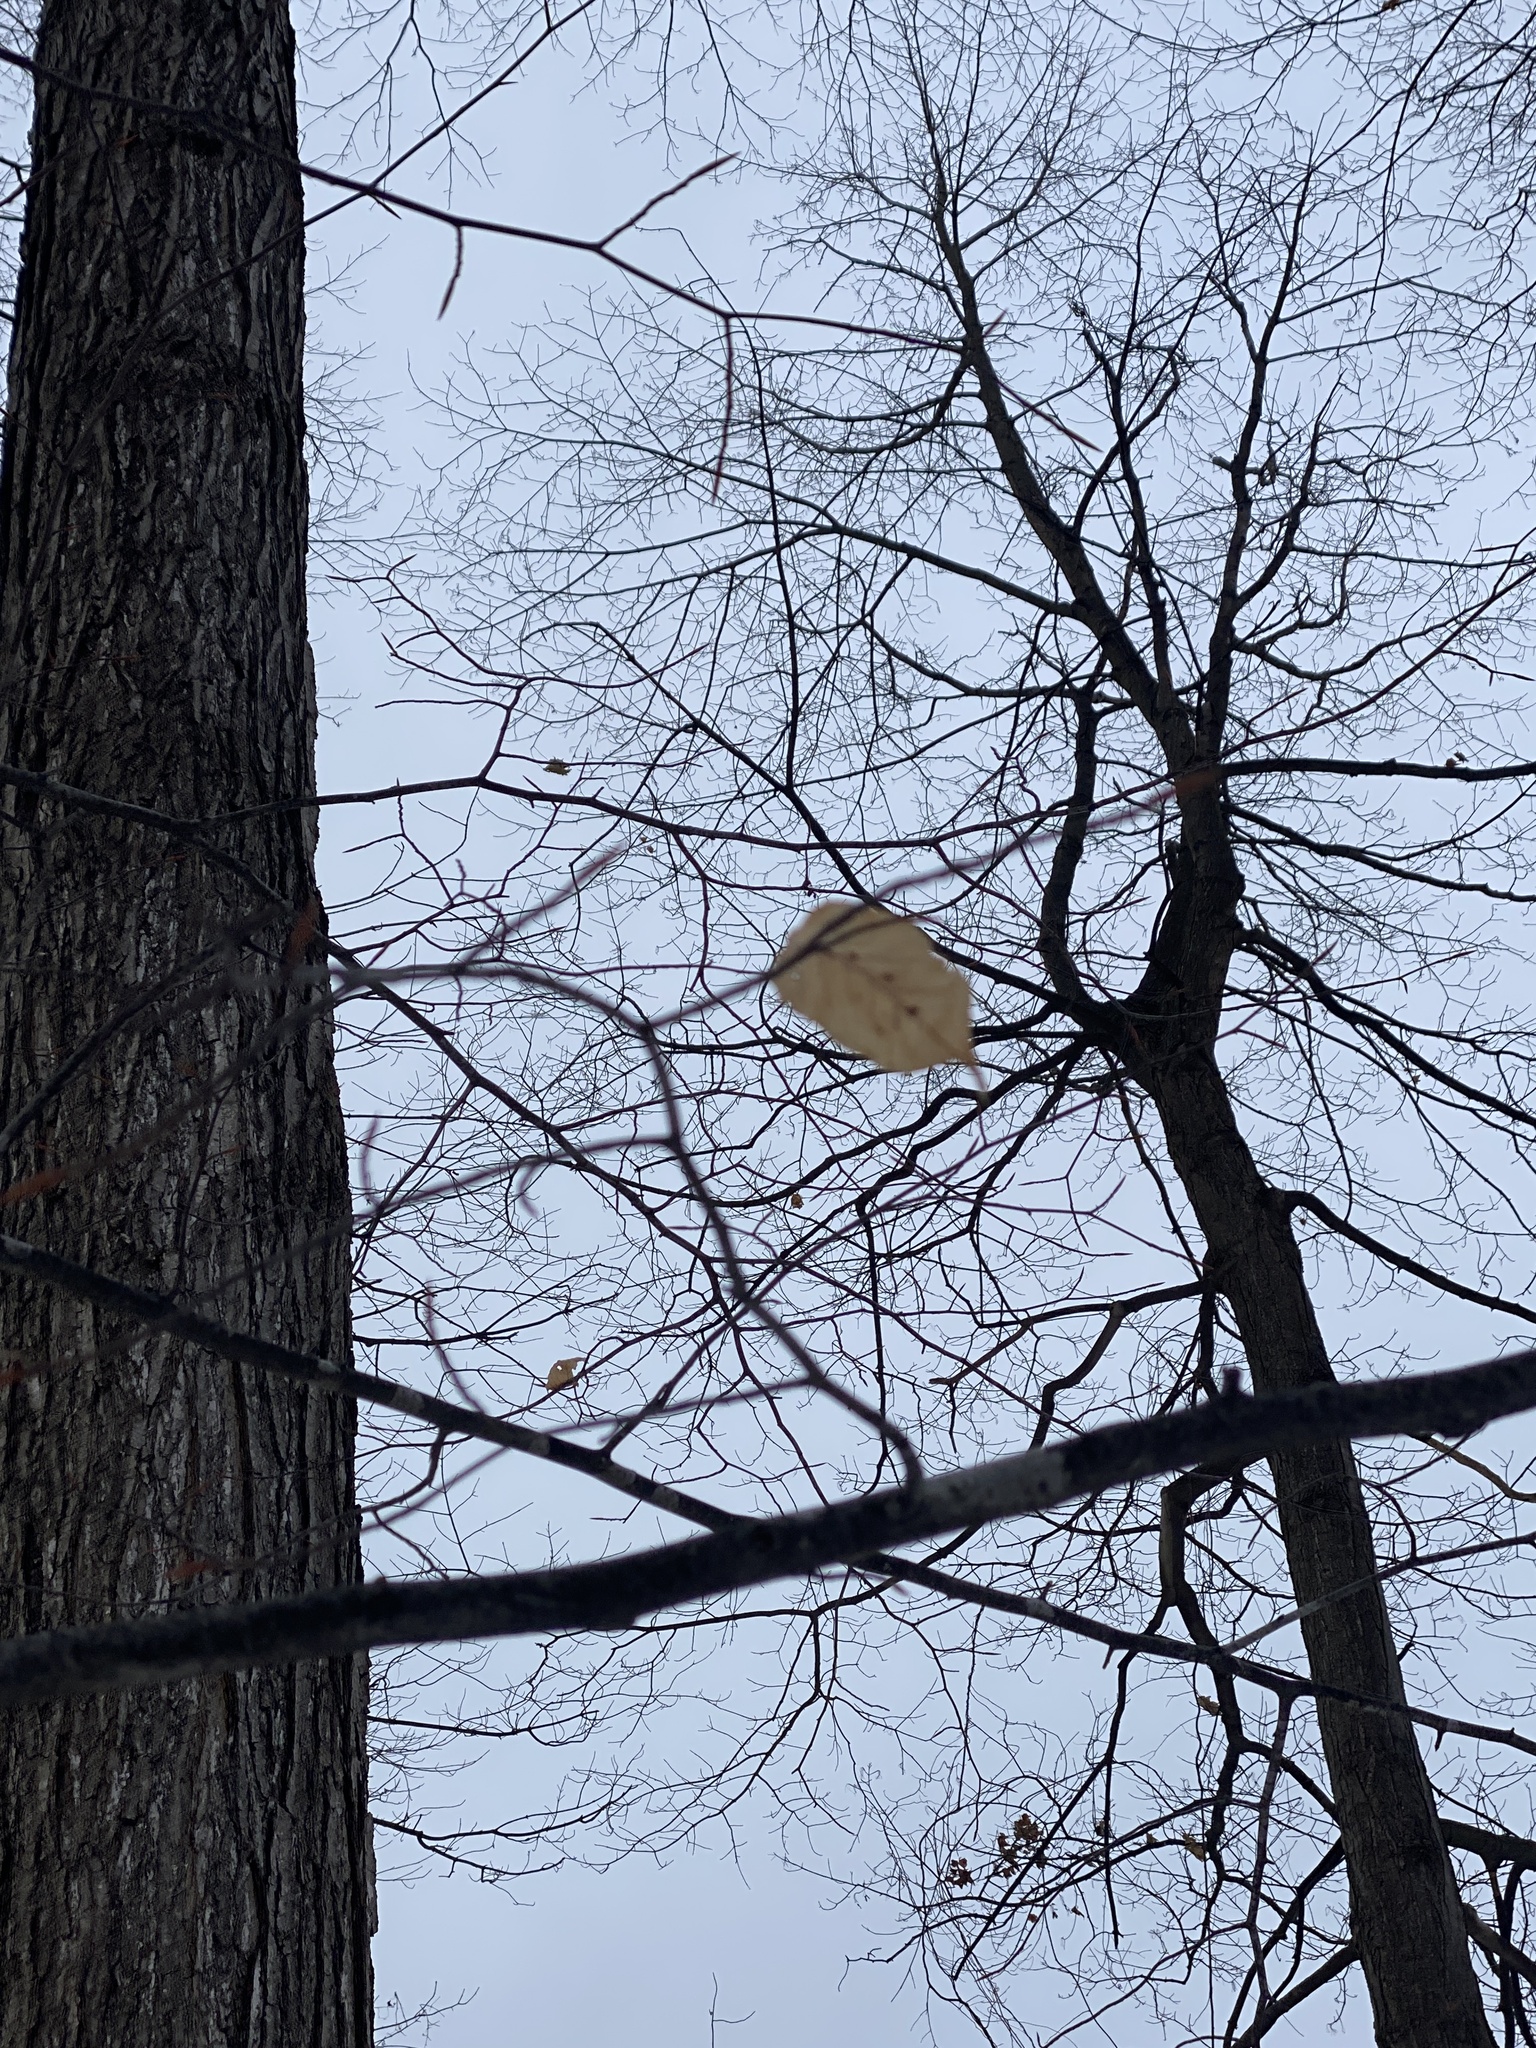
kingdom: Plantae
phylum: Tracheophyta
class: Magnoliopsida
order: Fagales
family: Fagaceae
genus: Fagus
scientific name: Fagus grandifolia
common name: American beech
